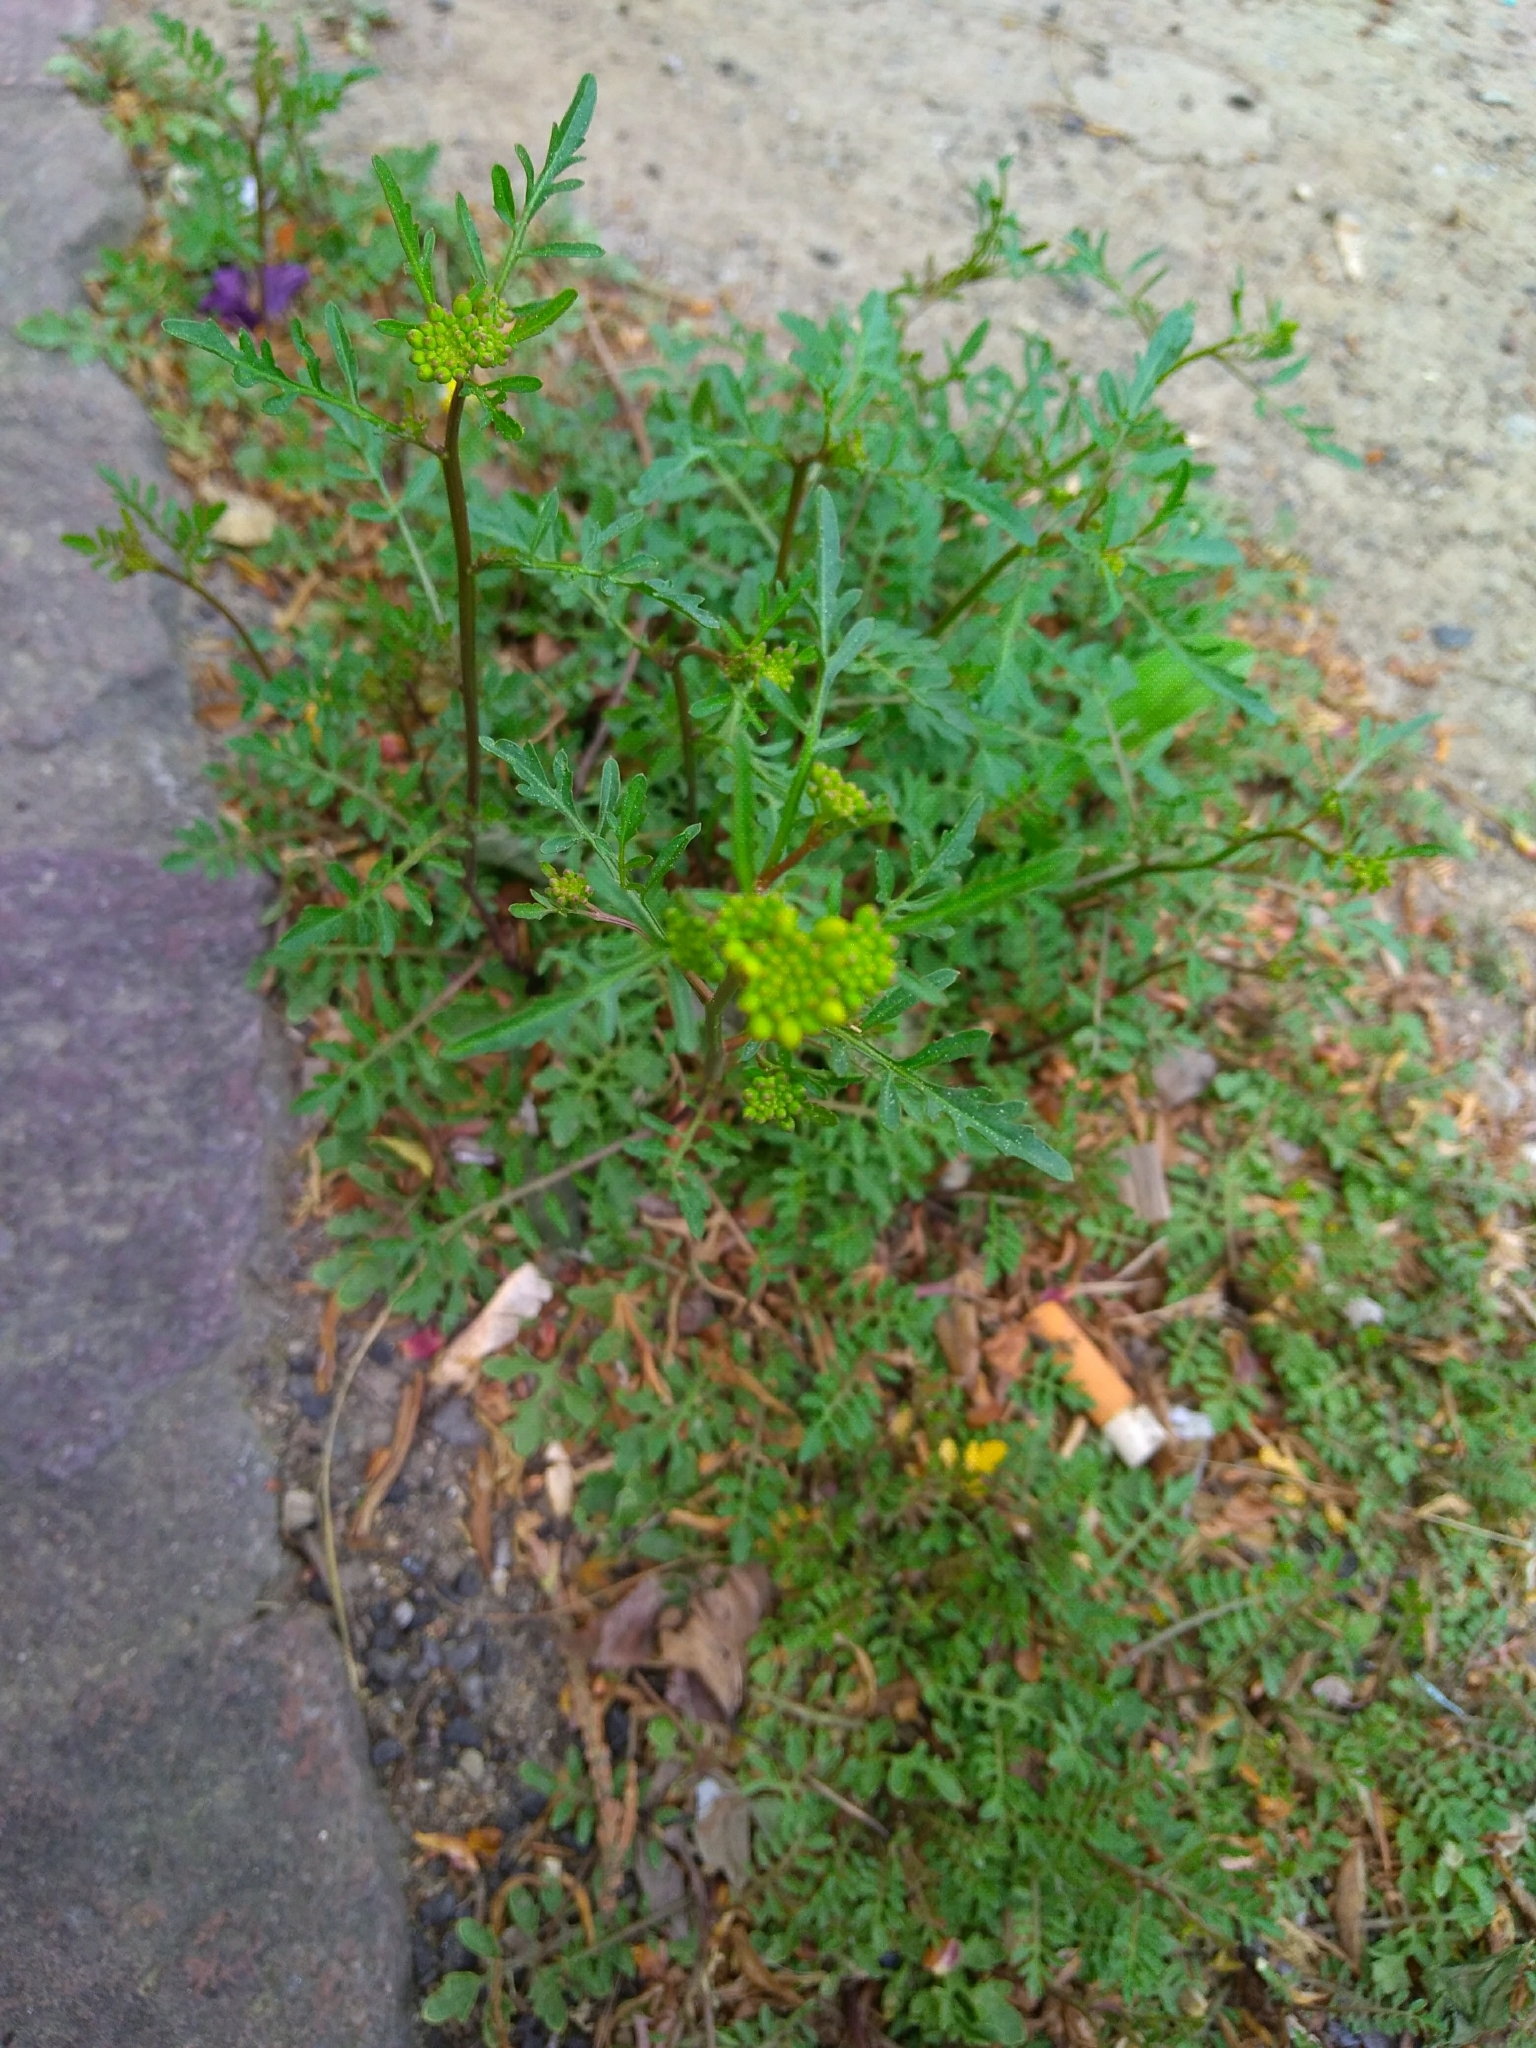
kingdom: Plantae
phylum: Tracheophyta
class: Magnoliopsida
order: Brassicales
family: Brassicaceae
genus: Rorippa
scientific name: Rorippa sylvestris
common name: Creeping yellowcress
